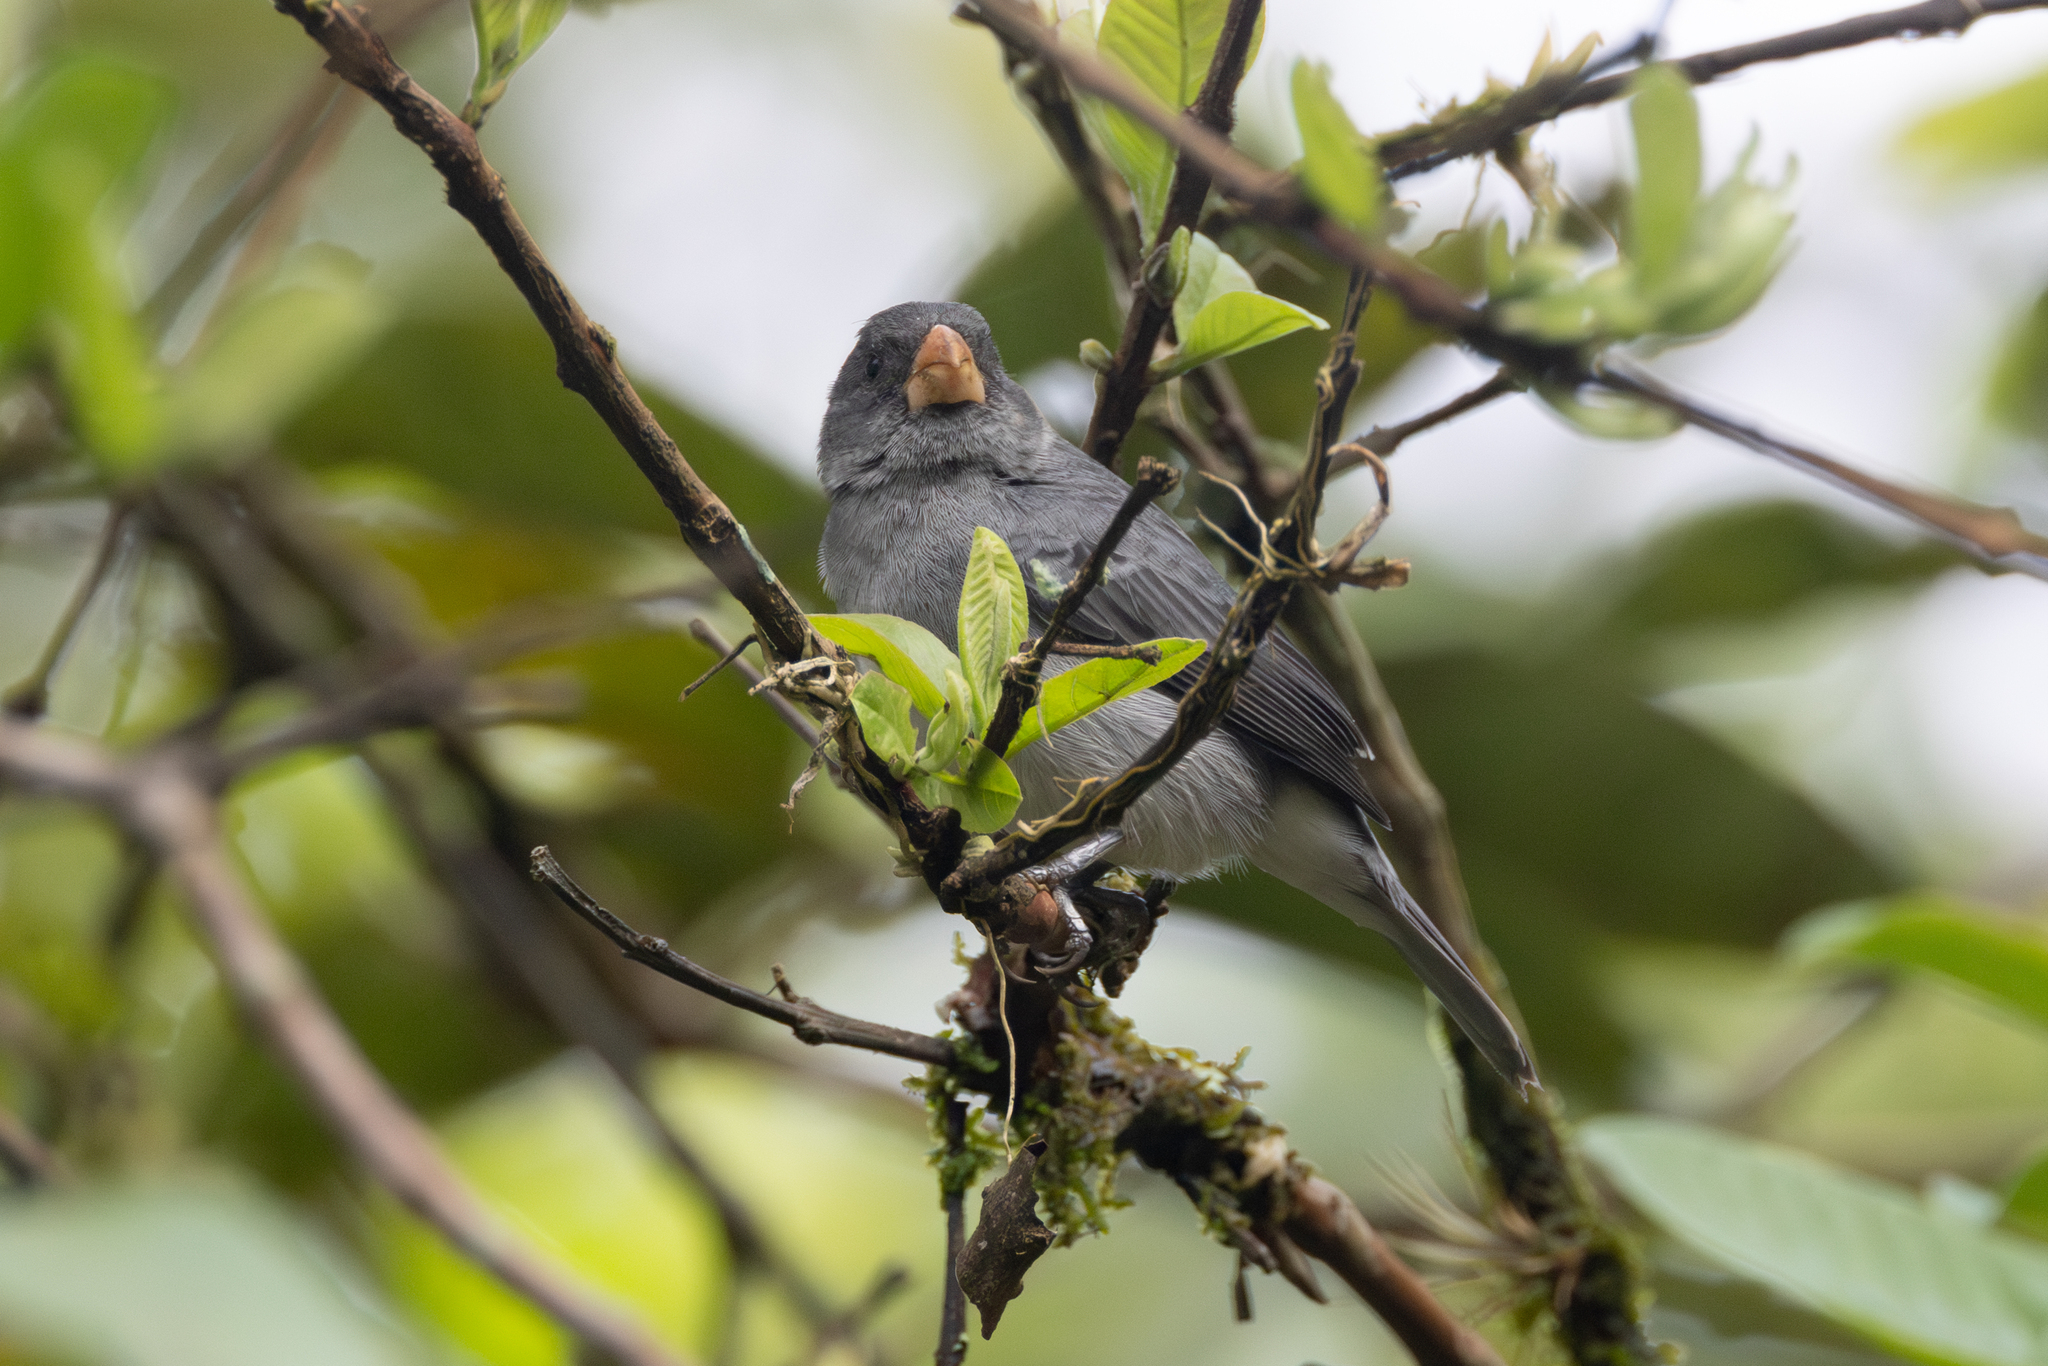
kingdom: Animalia
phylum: Chordata
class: Aves
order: Passeriformes
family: Thraupidae
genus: Sporophila
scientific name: Sporophila intermedia
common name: Grey seedeater
